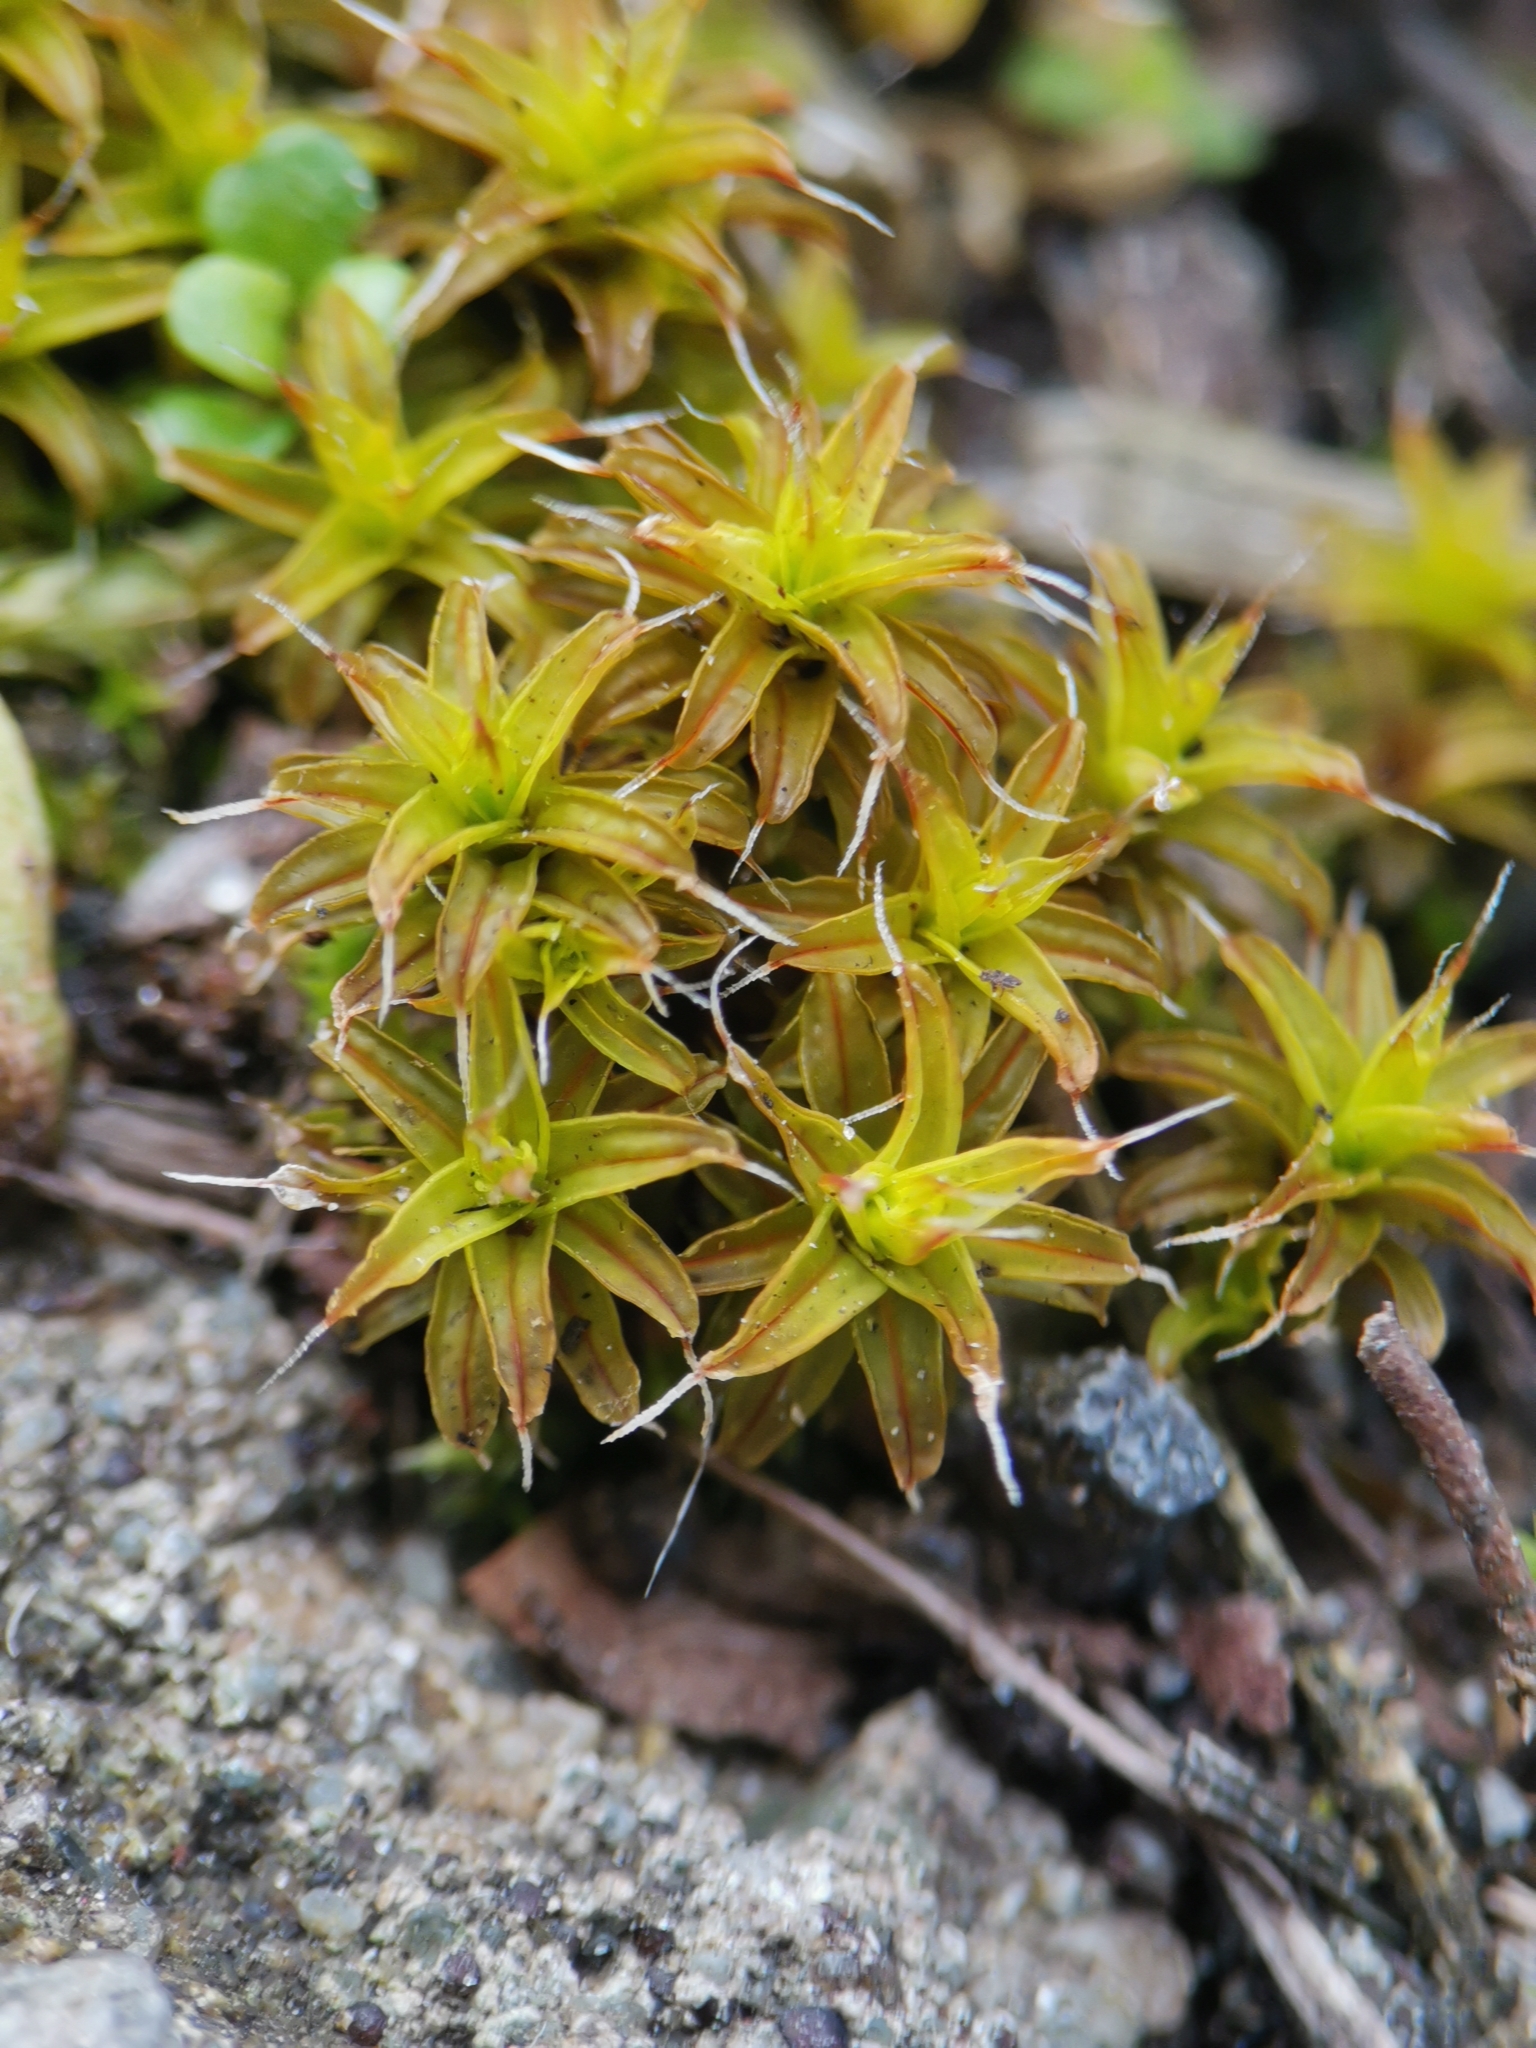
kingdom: Plantae
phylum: Bryophyta
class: Bryopsida
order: Pottiales
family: Pottiaceae
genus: Syntrichia
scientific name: Syntrichia ruralis
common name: Sidewalk screw moss
